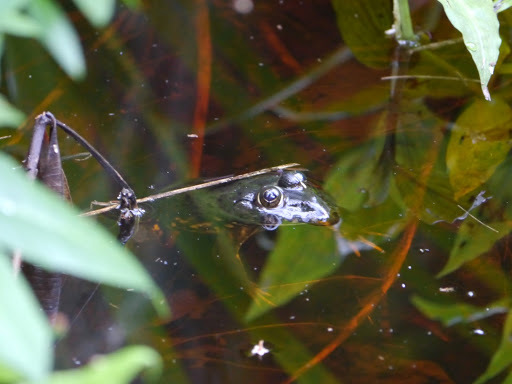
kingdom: Animalia
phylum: Chordata
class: Amphibia
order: Anura
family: Dicroglossidae
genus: Hoplobatrachus
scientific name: Hoplobatrachus occipitalis
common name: Eastern groove-crowned bullfrog
